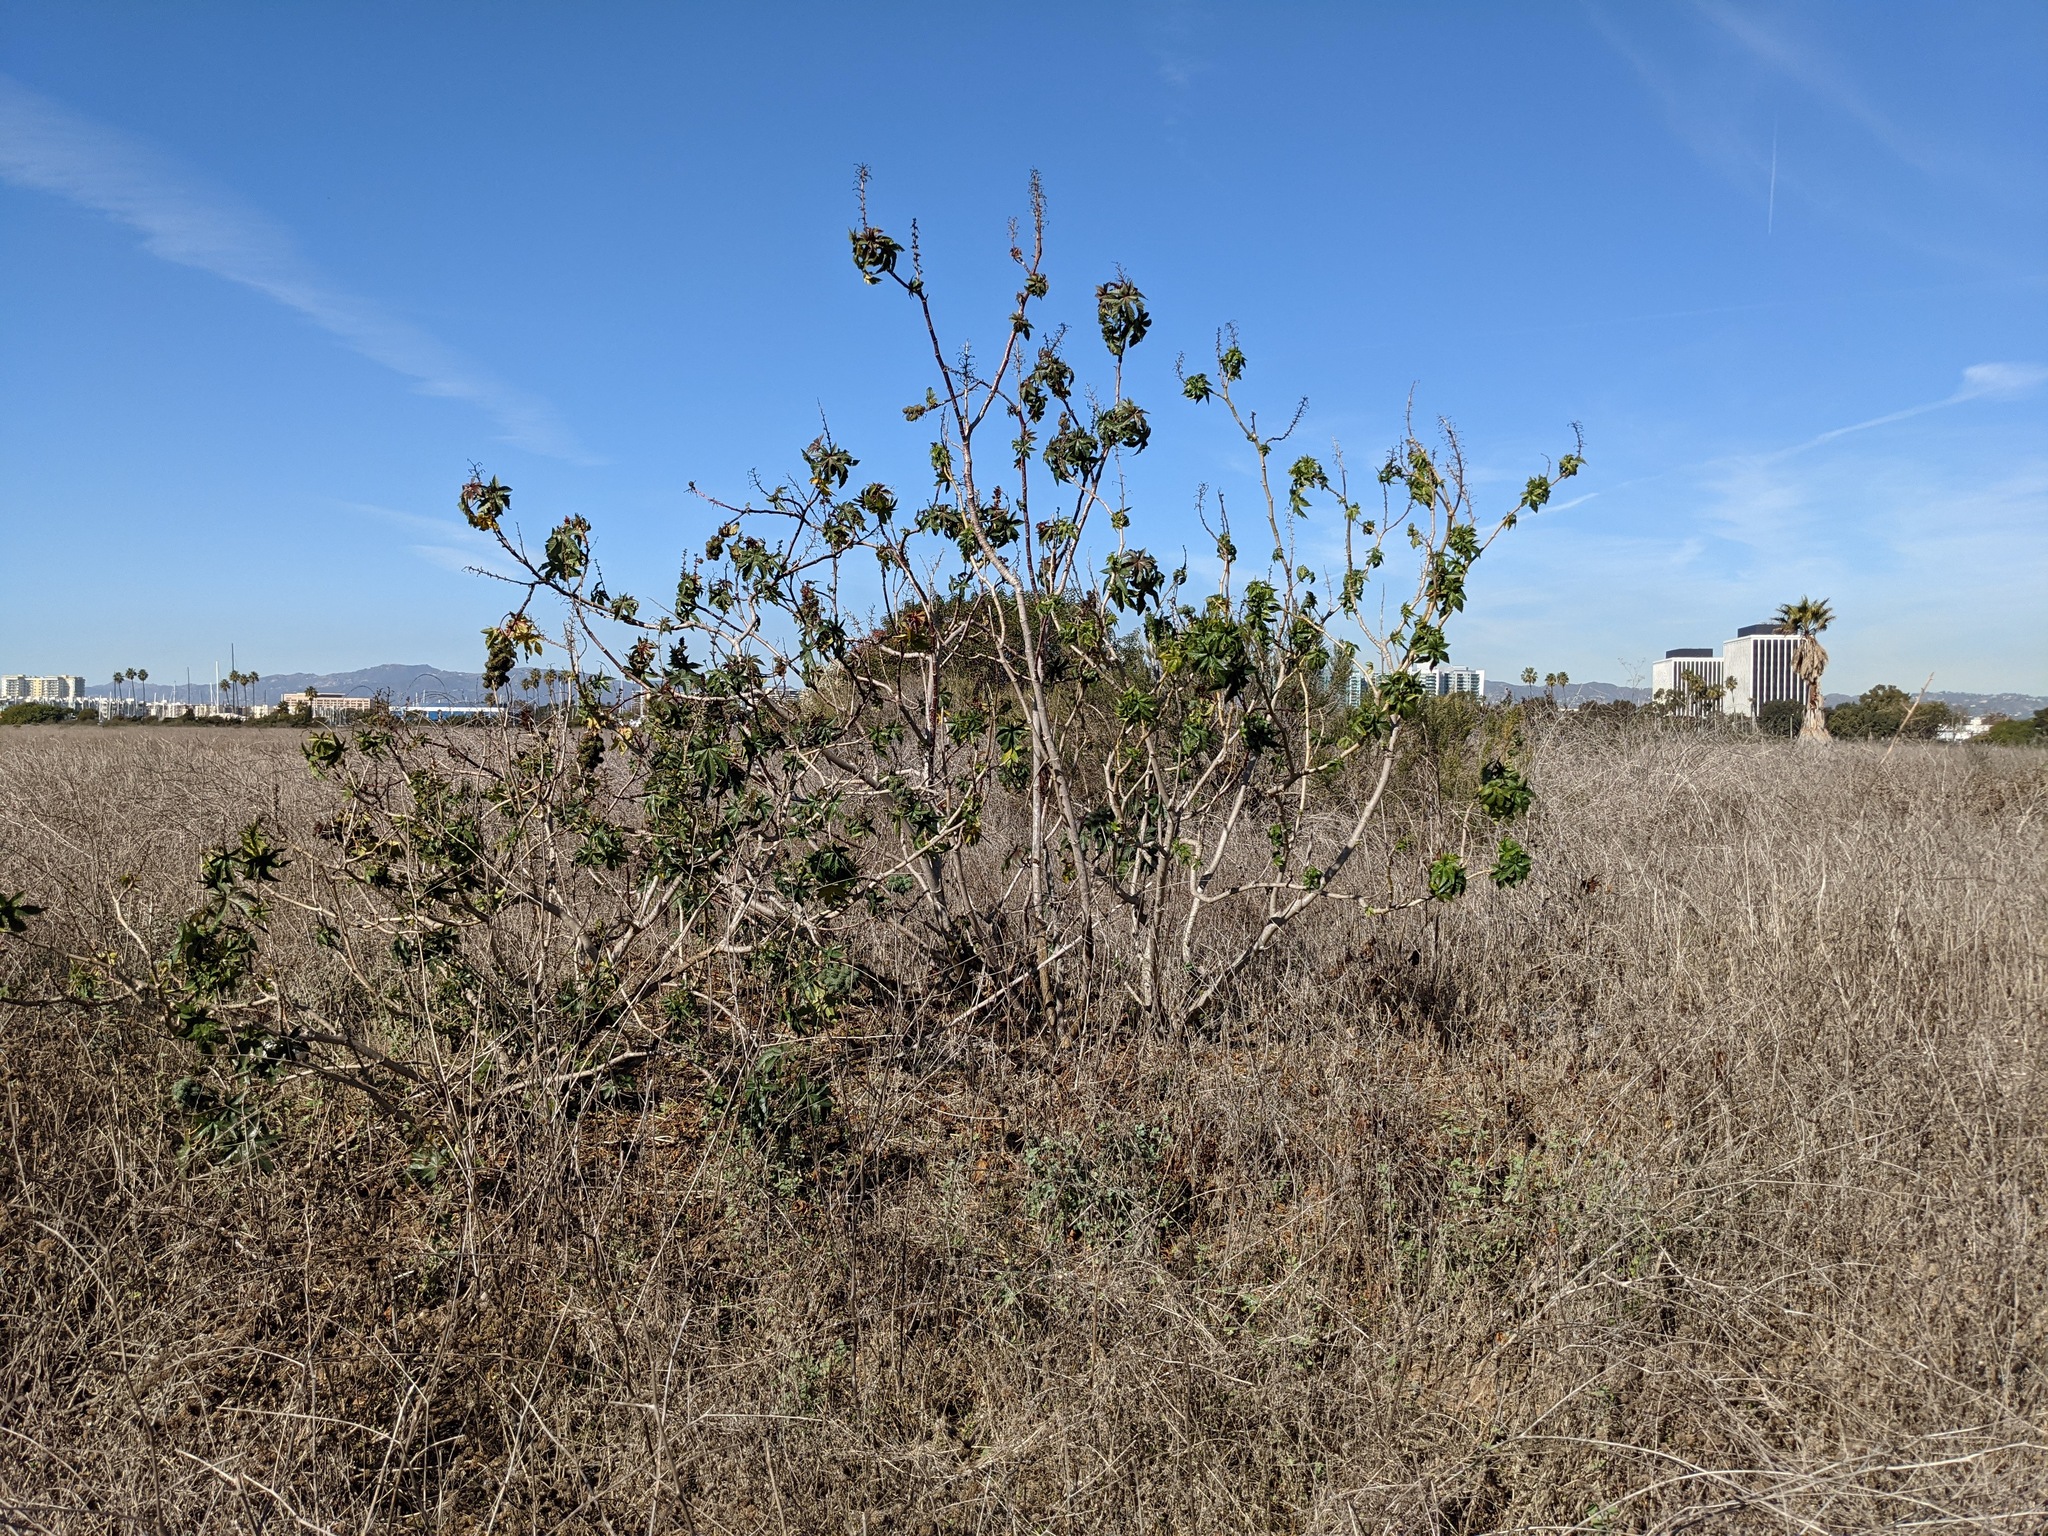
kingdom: Plantae
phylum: Tracheophyta
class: Magnoliopsida
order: Malpighiales
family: Euphorbiaceae
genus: Ricinus
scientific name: Ricinus communis
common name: Castor-oil-plant
